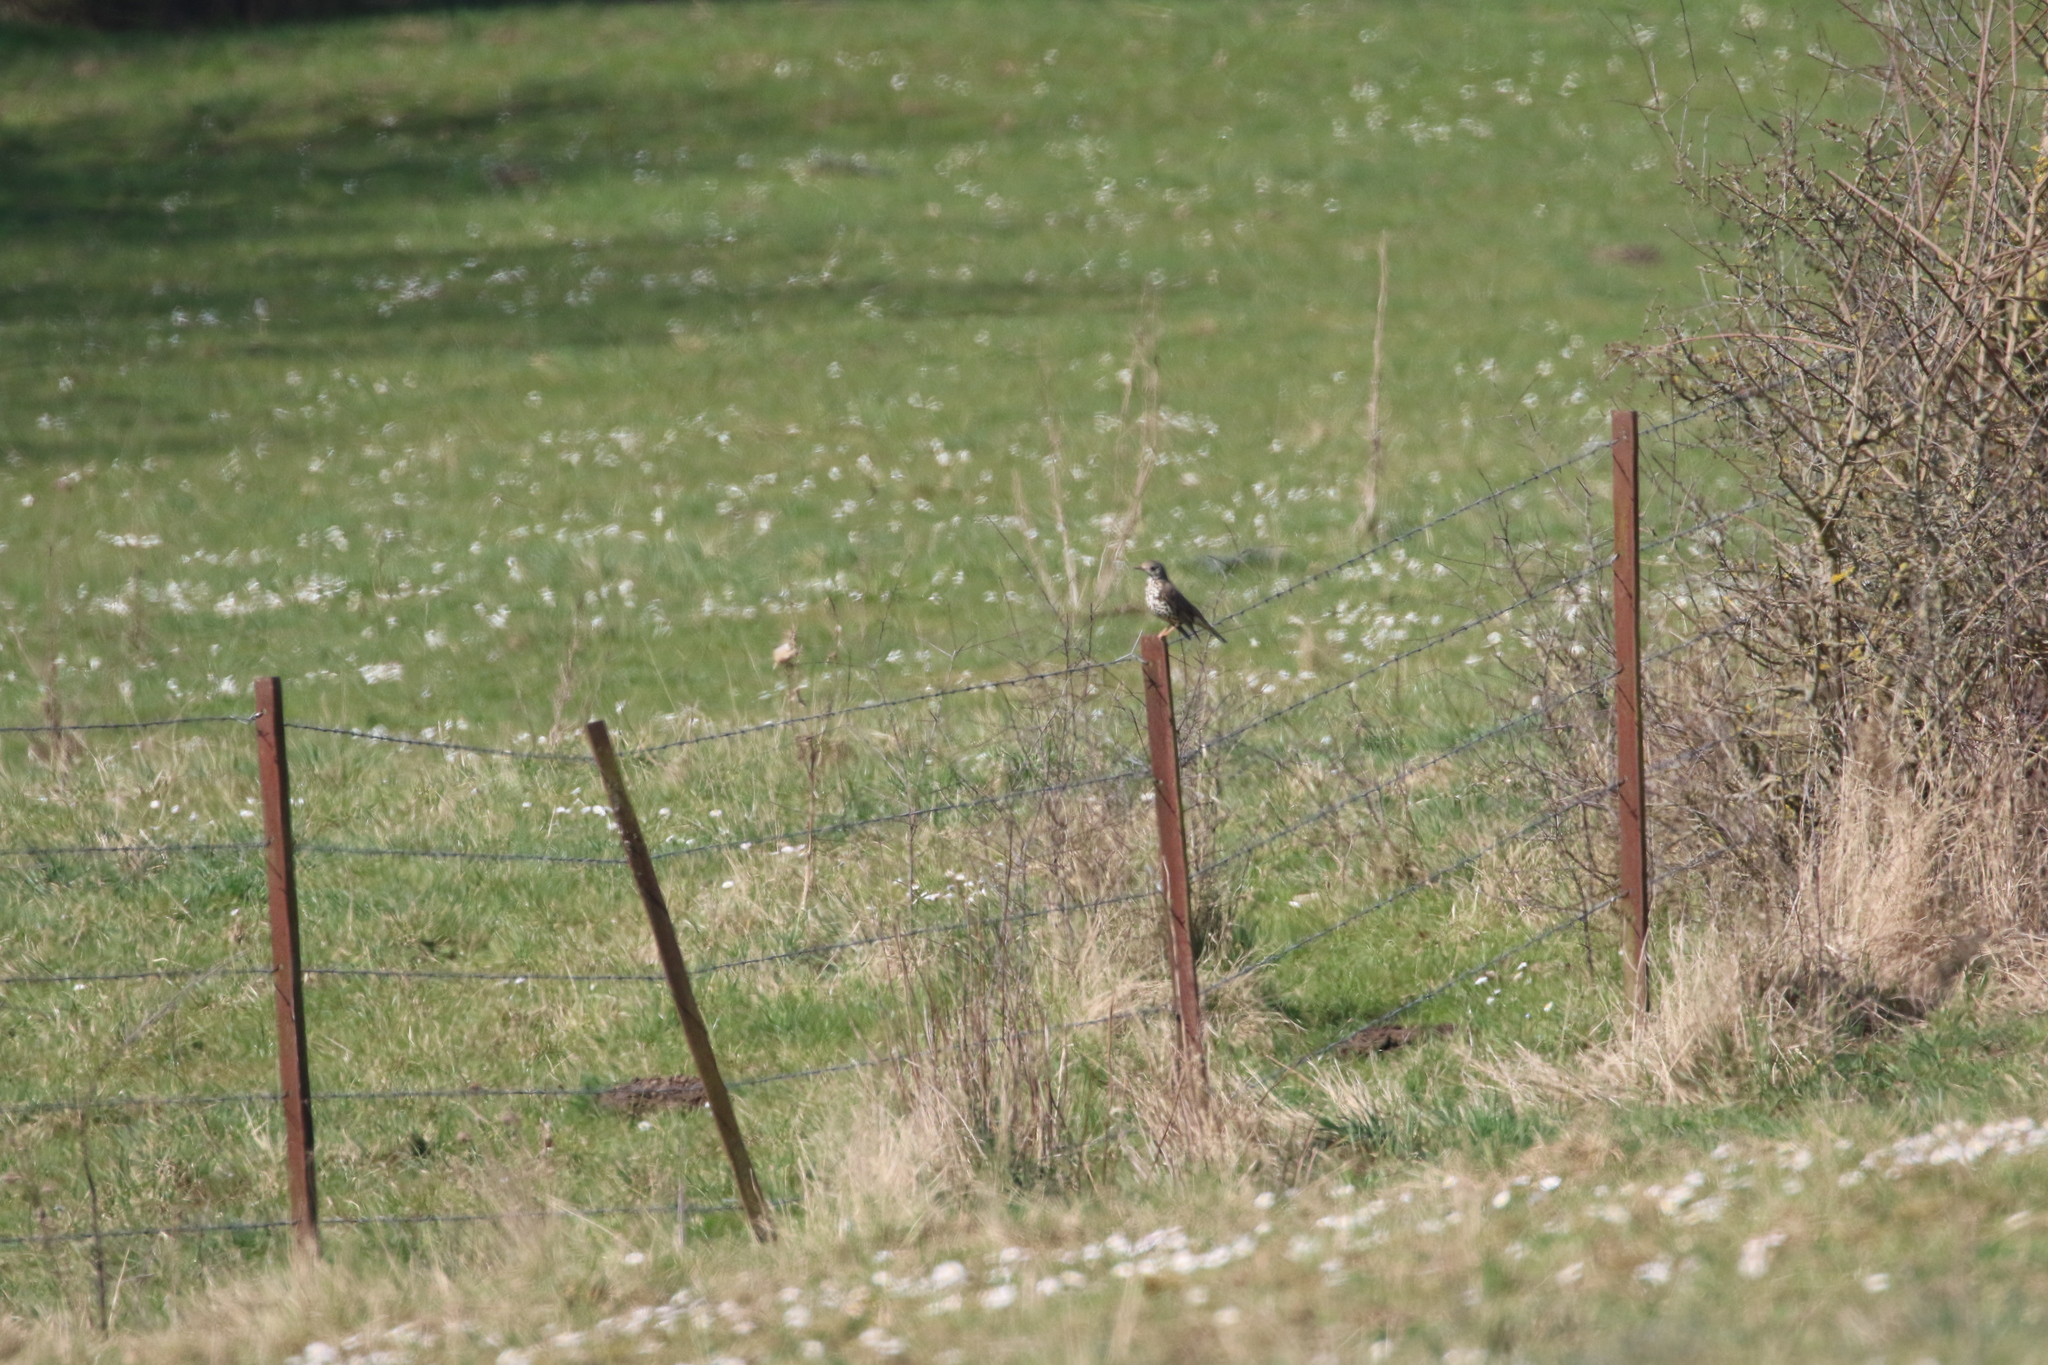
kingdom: Animalia
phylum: Chordata
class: Aves
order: Passeriformes
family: Turdidae
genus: Turdus
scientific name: Turdus viscivorus
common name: Mistle thrush
